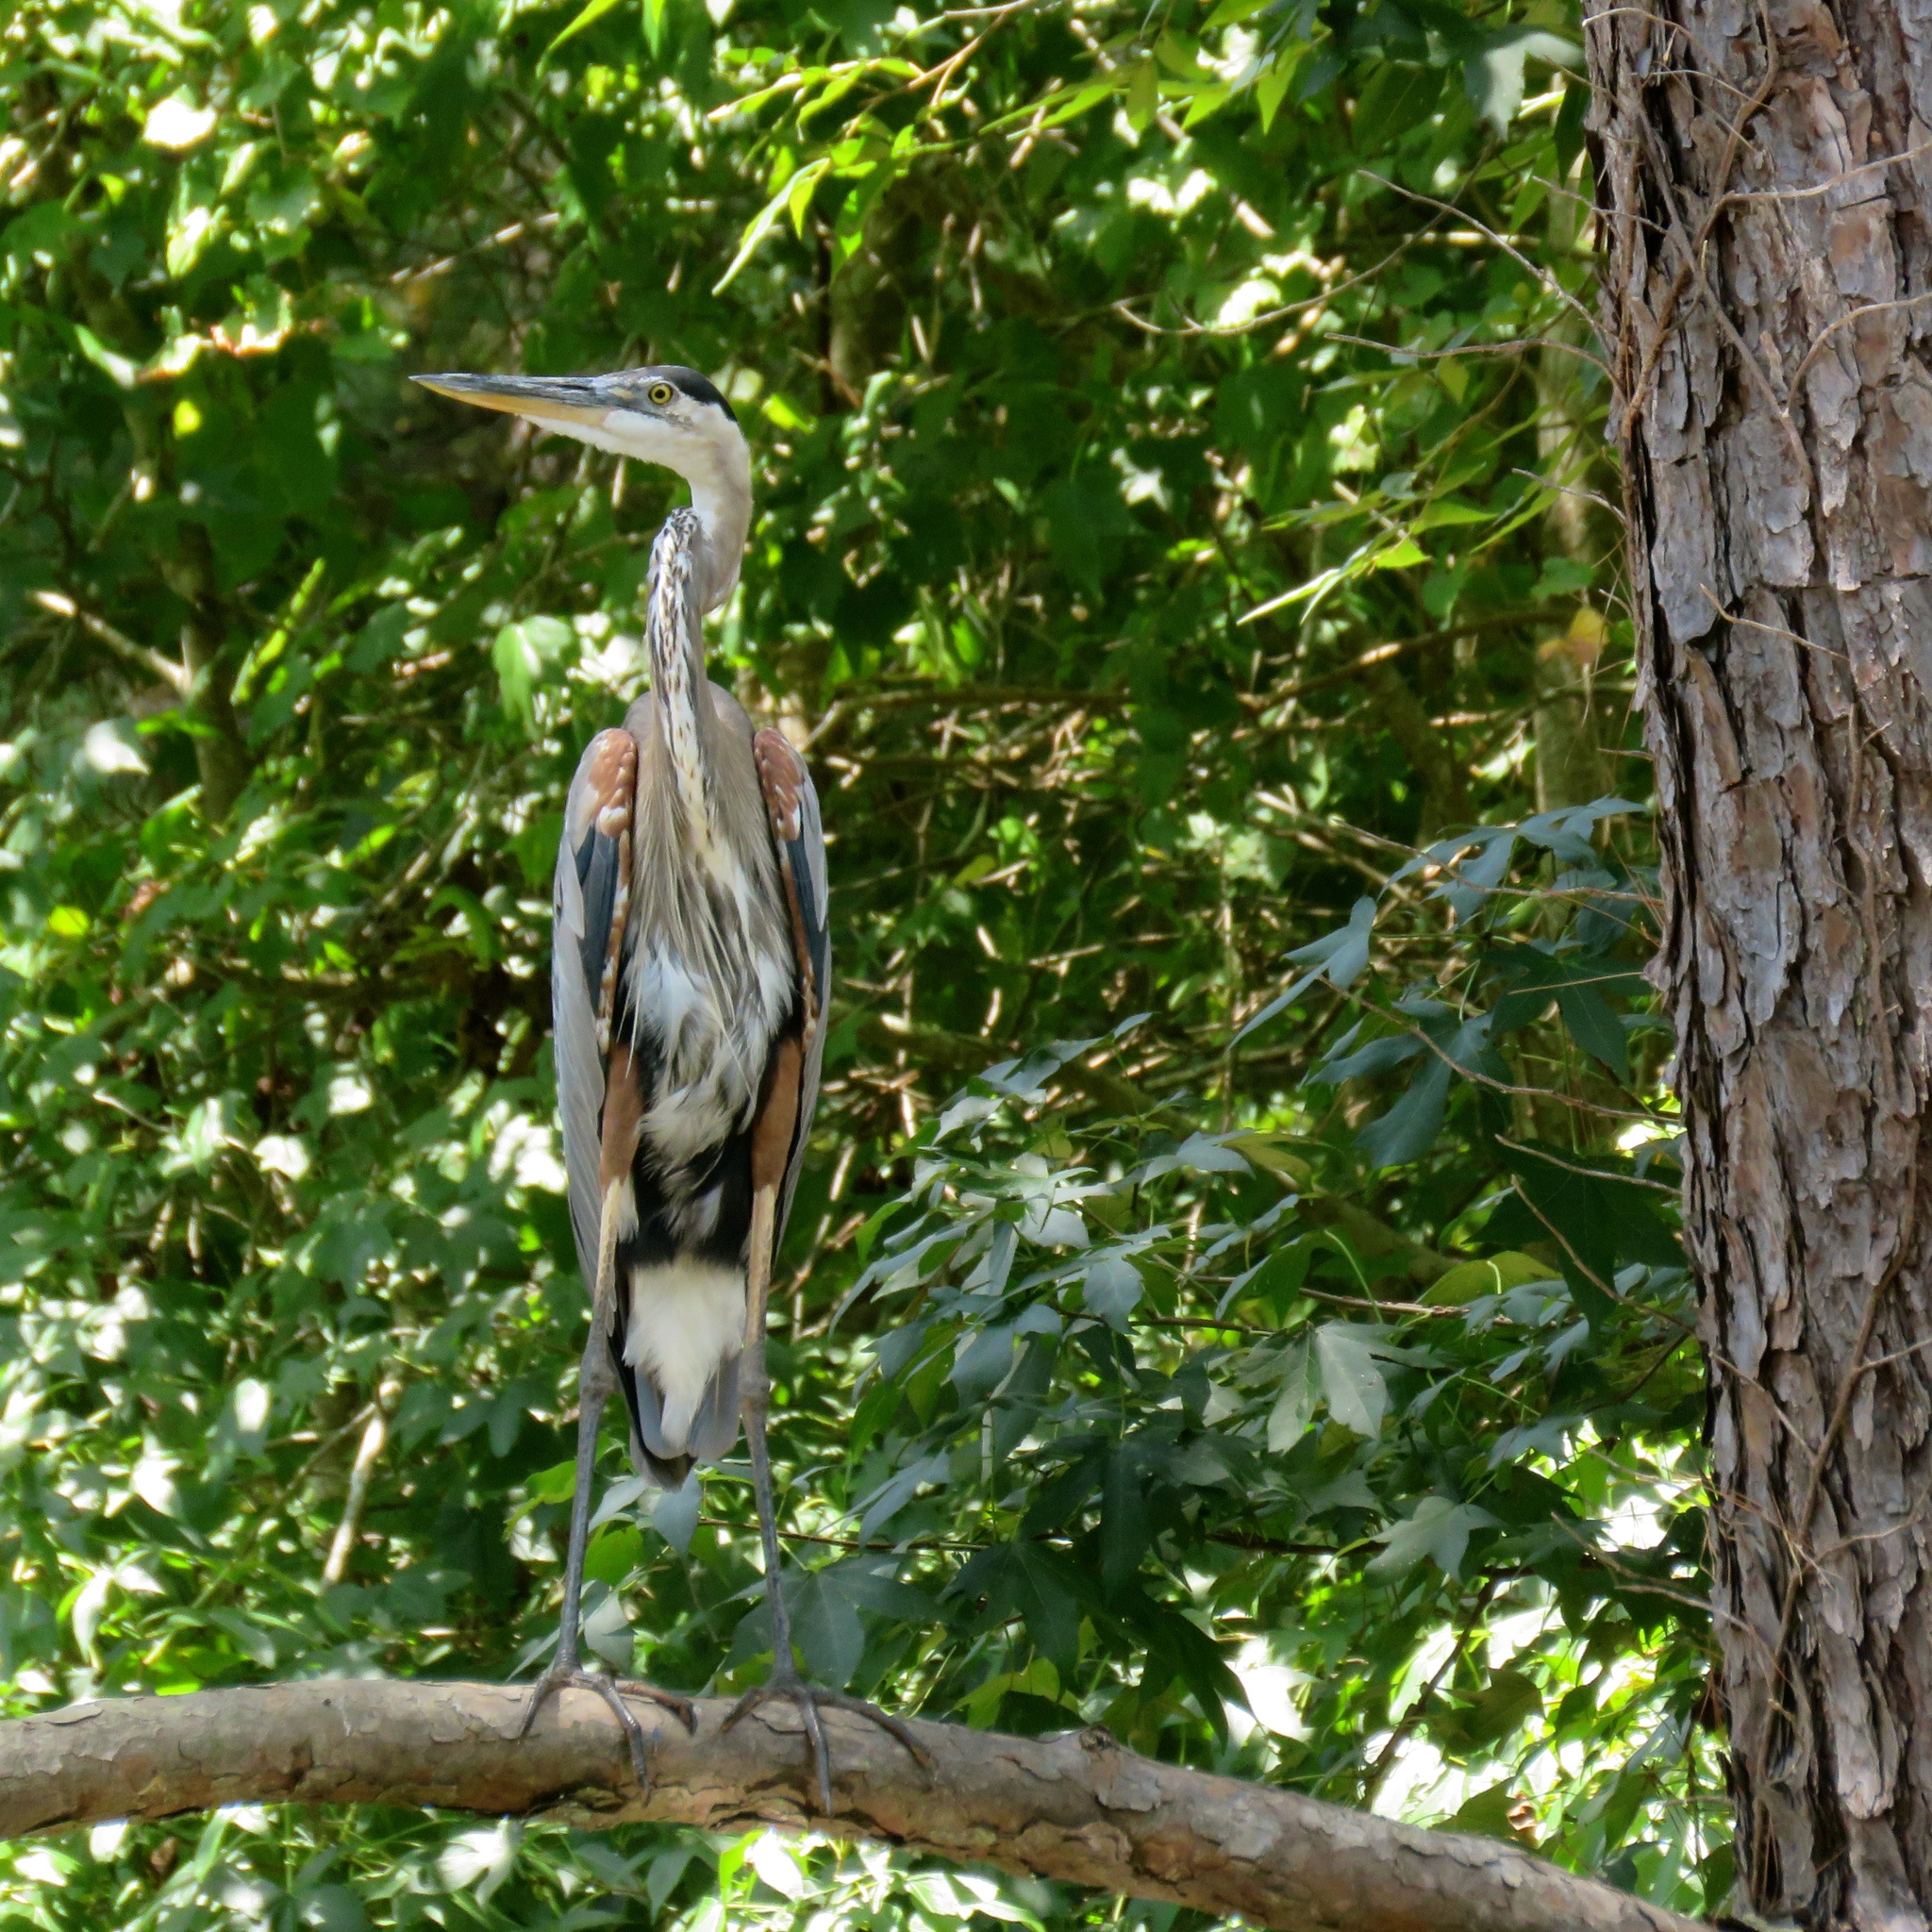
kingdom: Animalia
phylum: Chordata
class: Aves
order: Pelecaniformes
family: Ardeidae
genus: Ardea
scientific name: Ardea herodias
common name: Great blue heron
